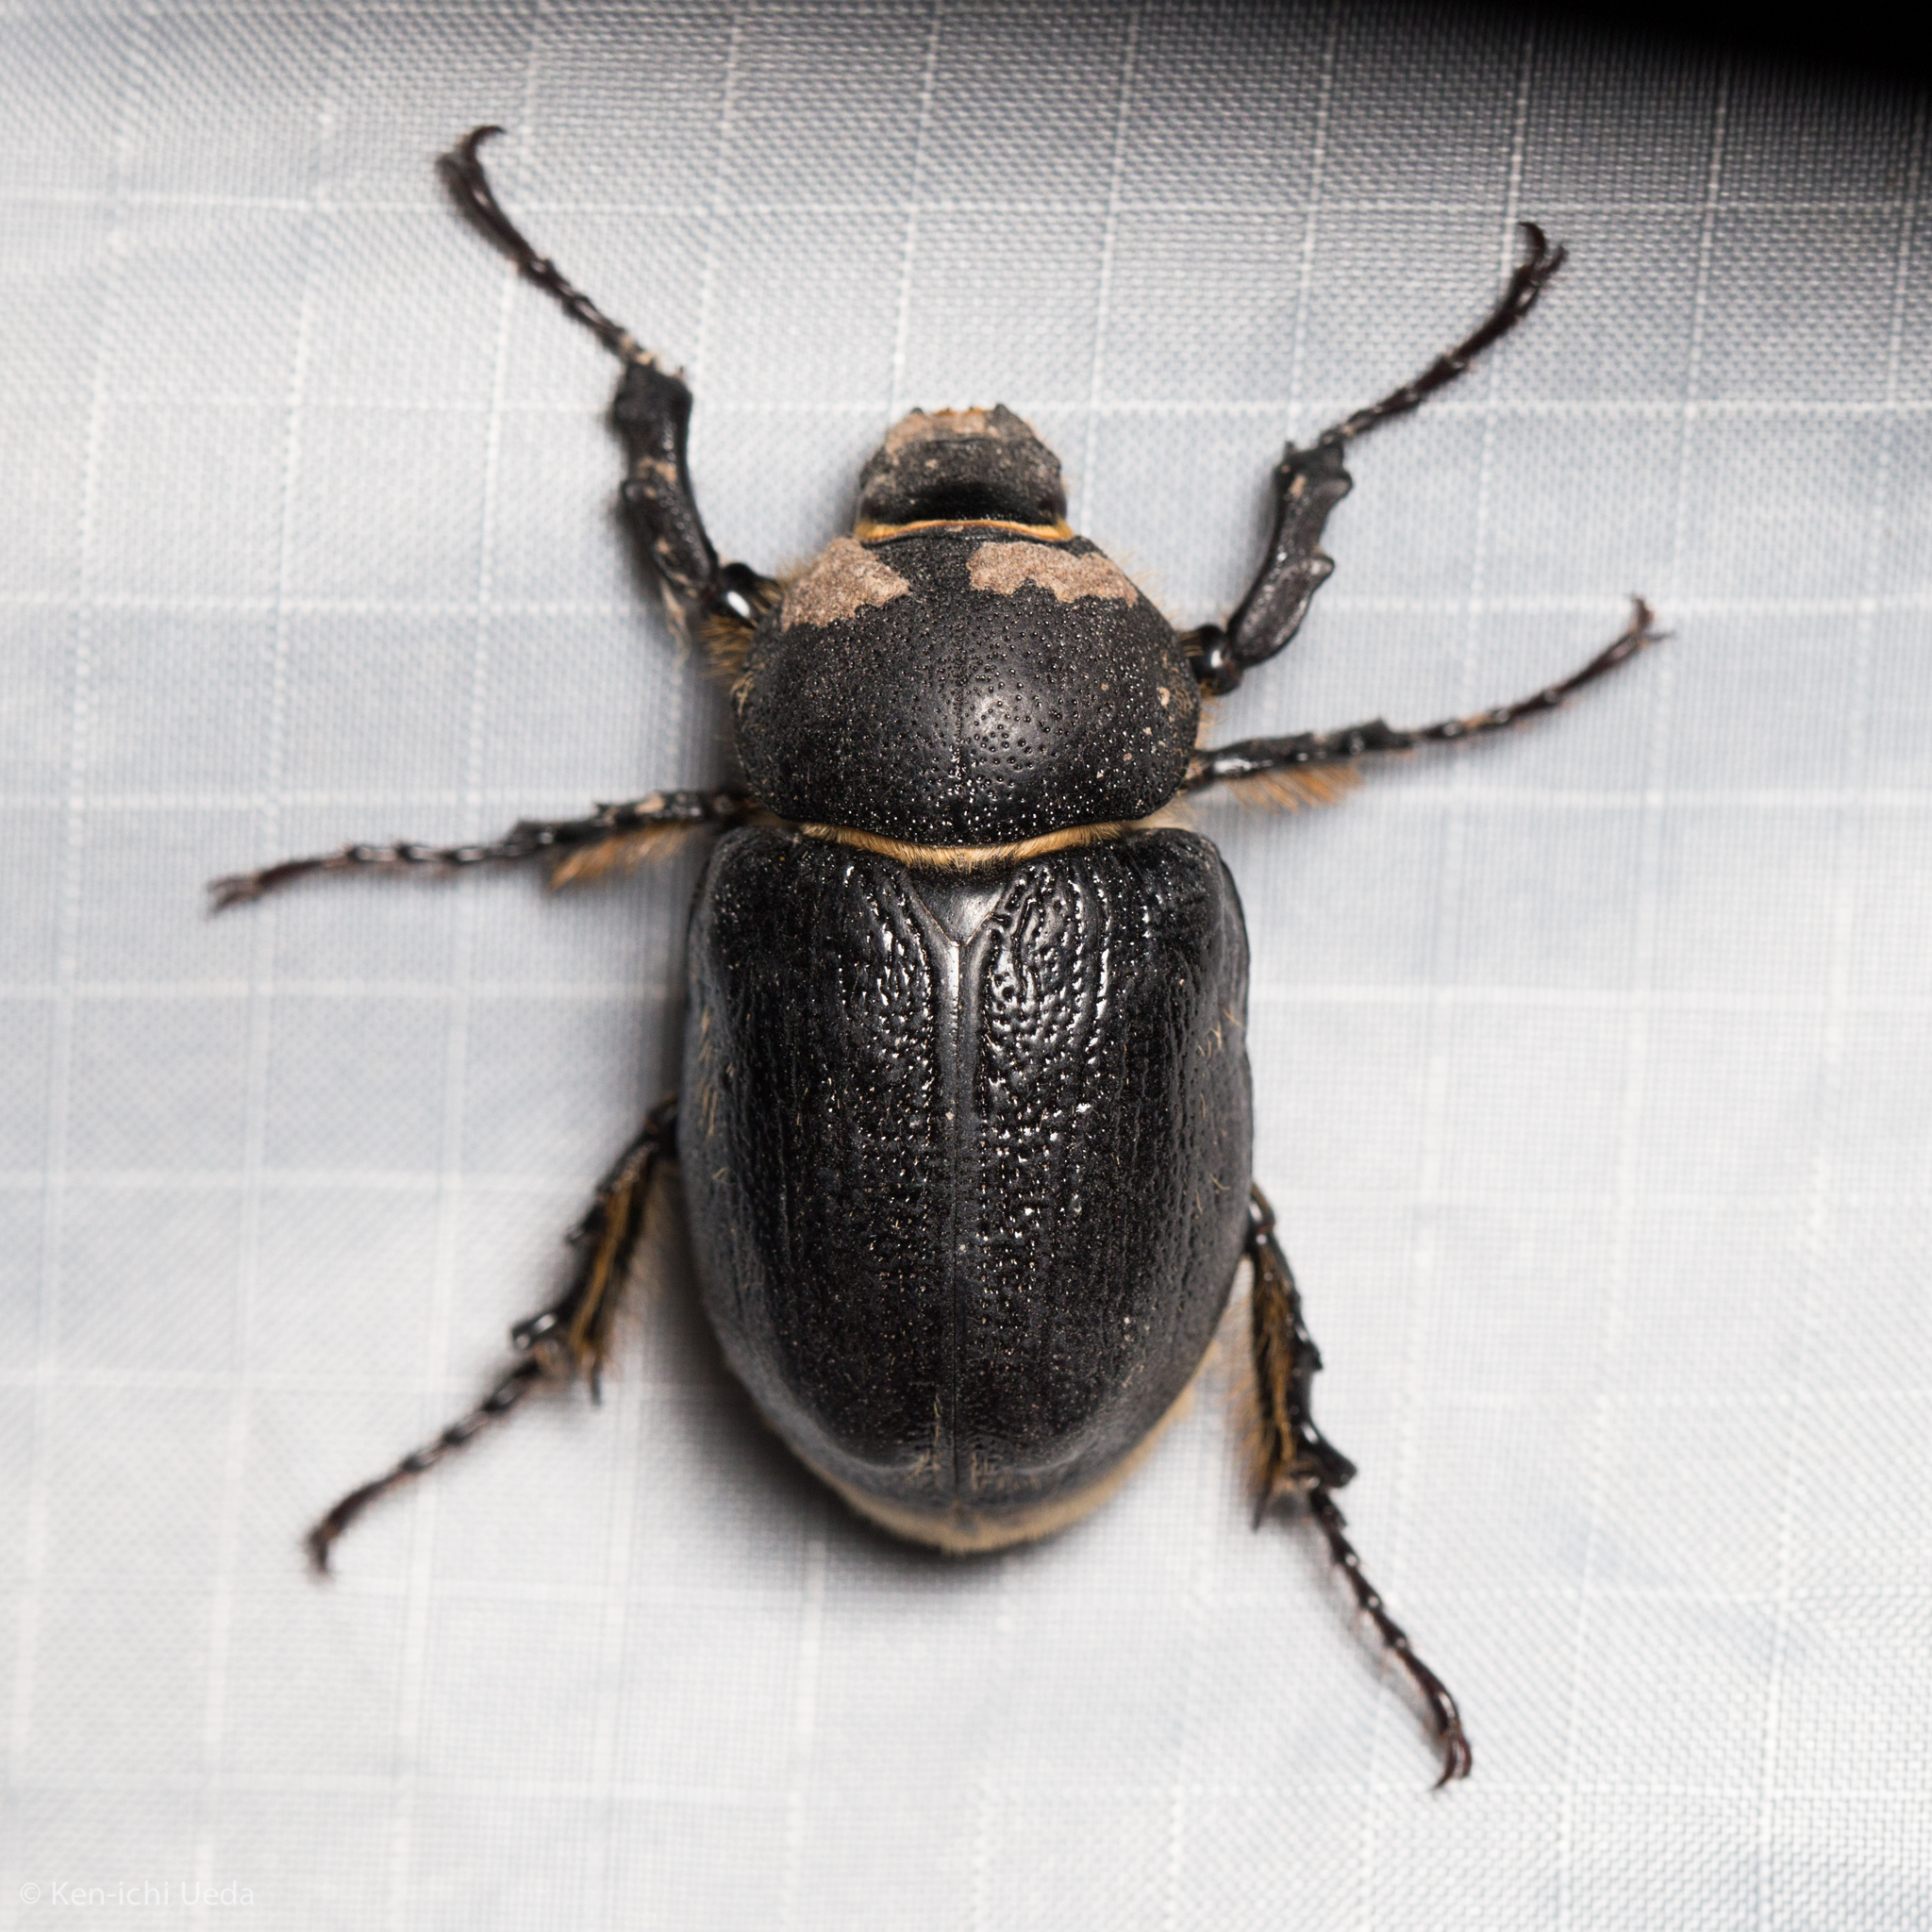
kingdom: Animalia
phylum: Arthropoda
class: Insecta
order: Coleoptera
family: Scarabaeidae
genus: Megasoma
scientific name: Megasoma thersites
